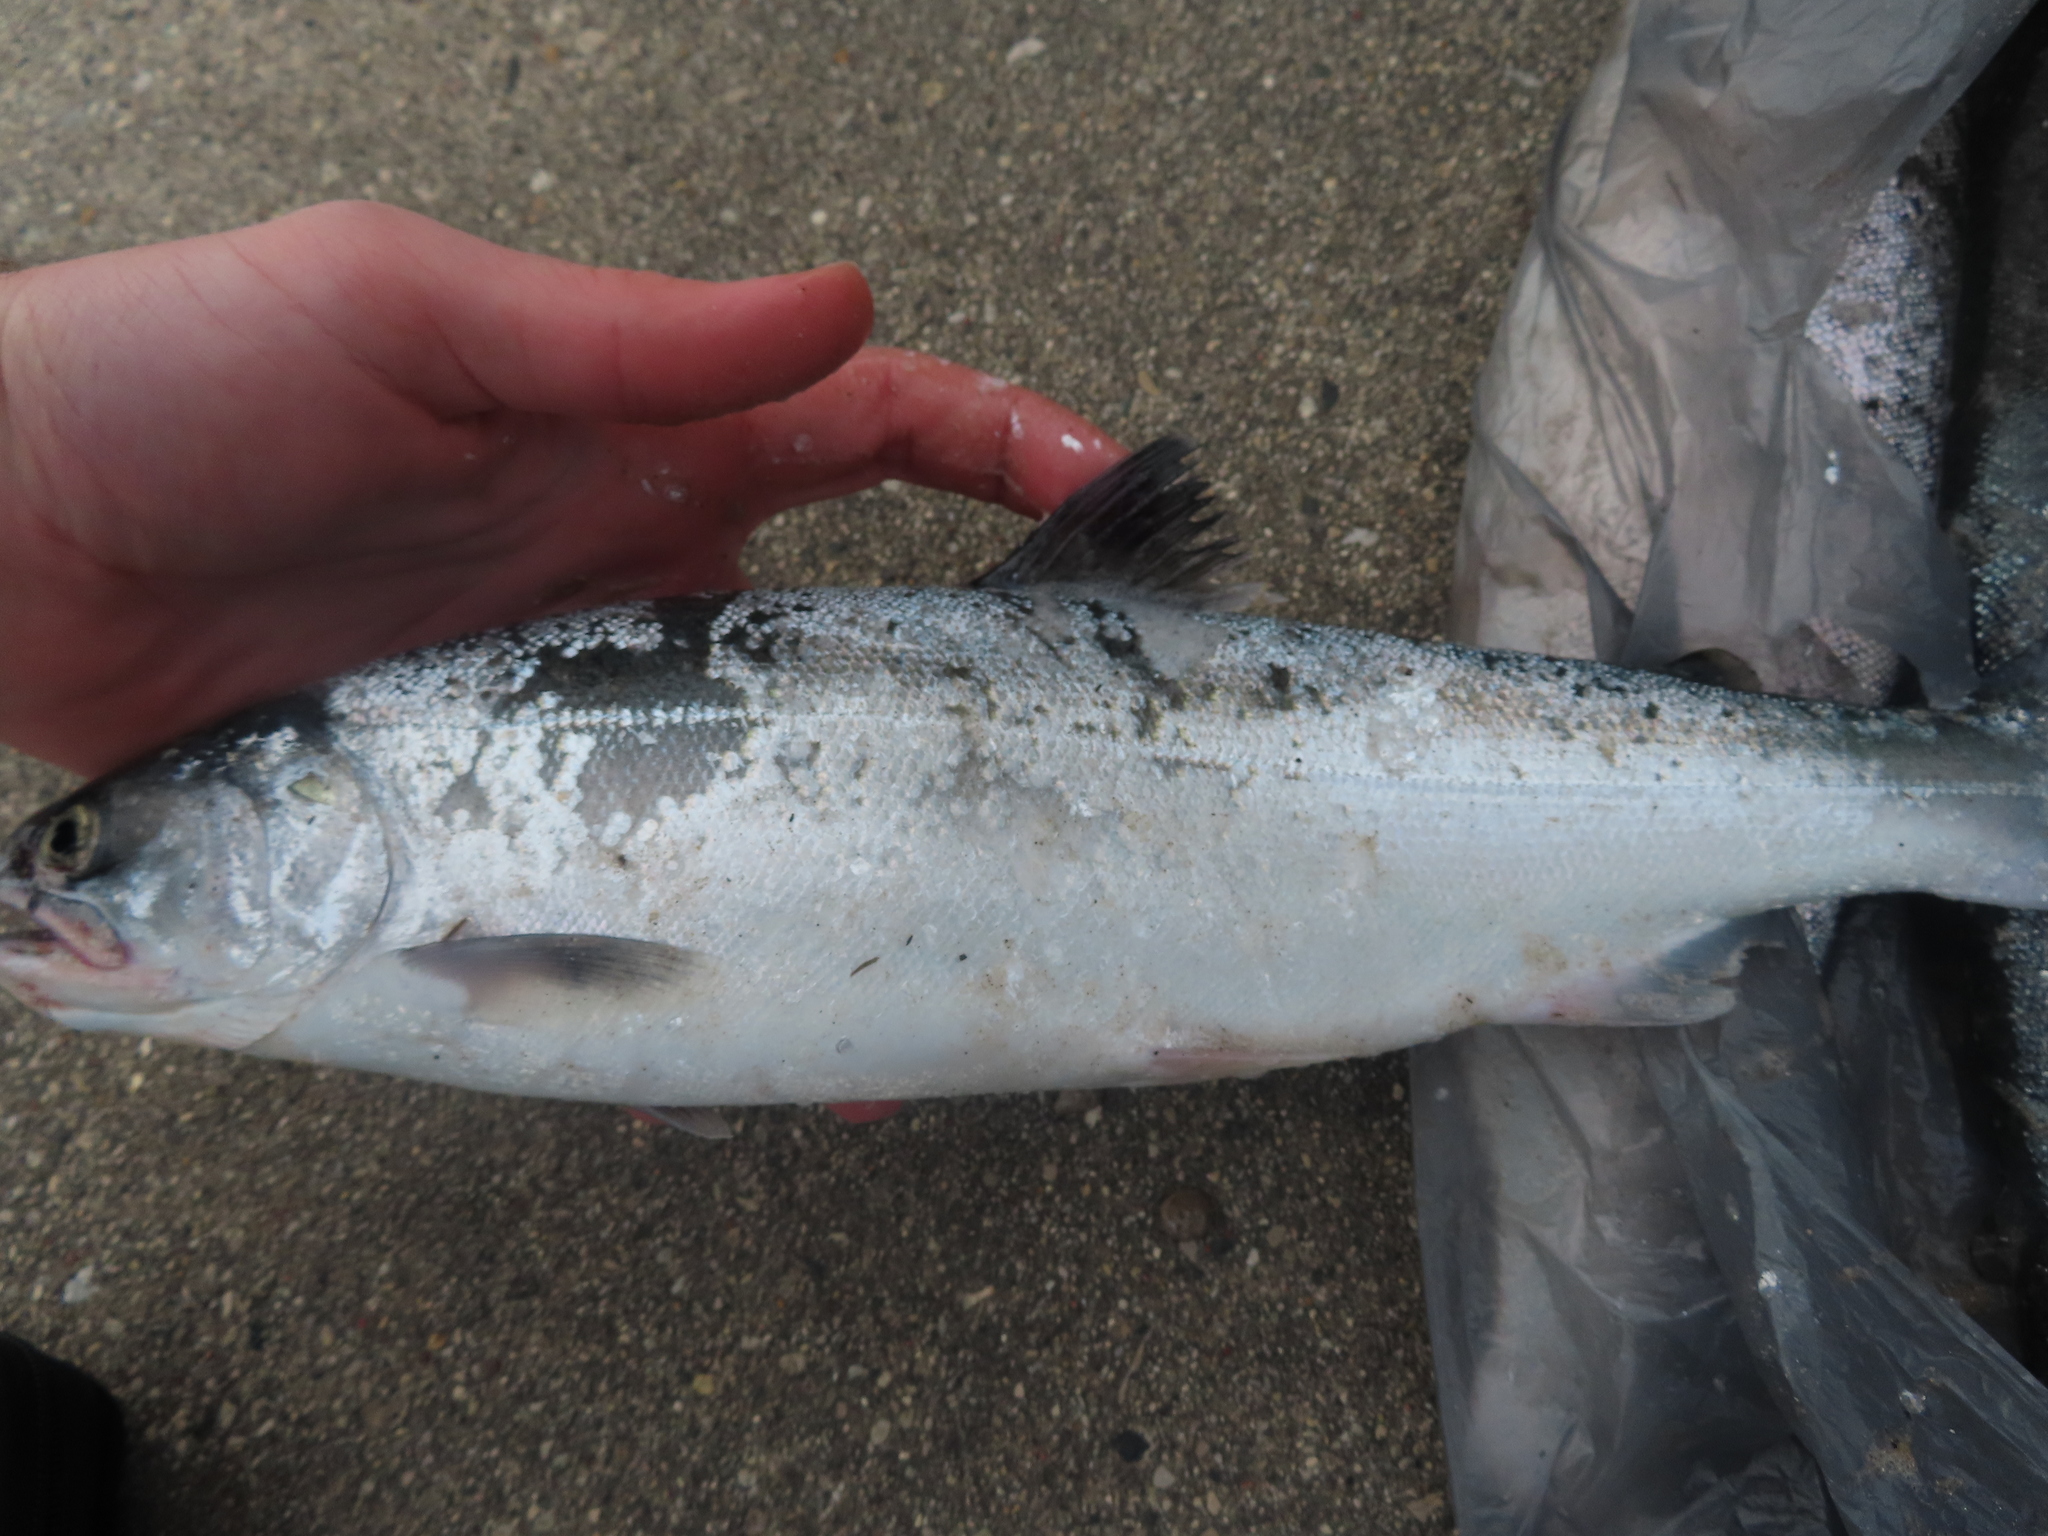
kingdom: Animalia
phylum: Chordata
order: Salmoniformes
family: Salmonidae
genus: Oncorhynchus
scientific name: Oncorhynchus kisutch
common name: Coho salmon
